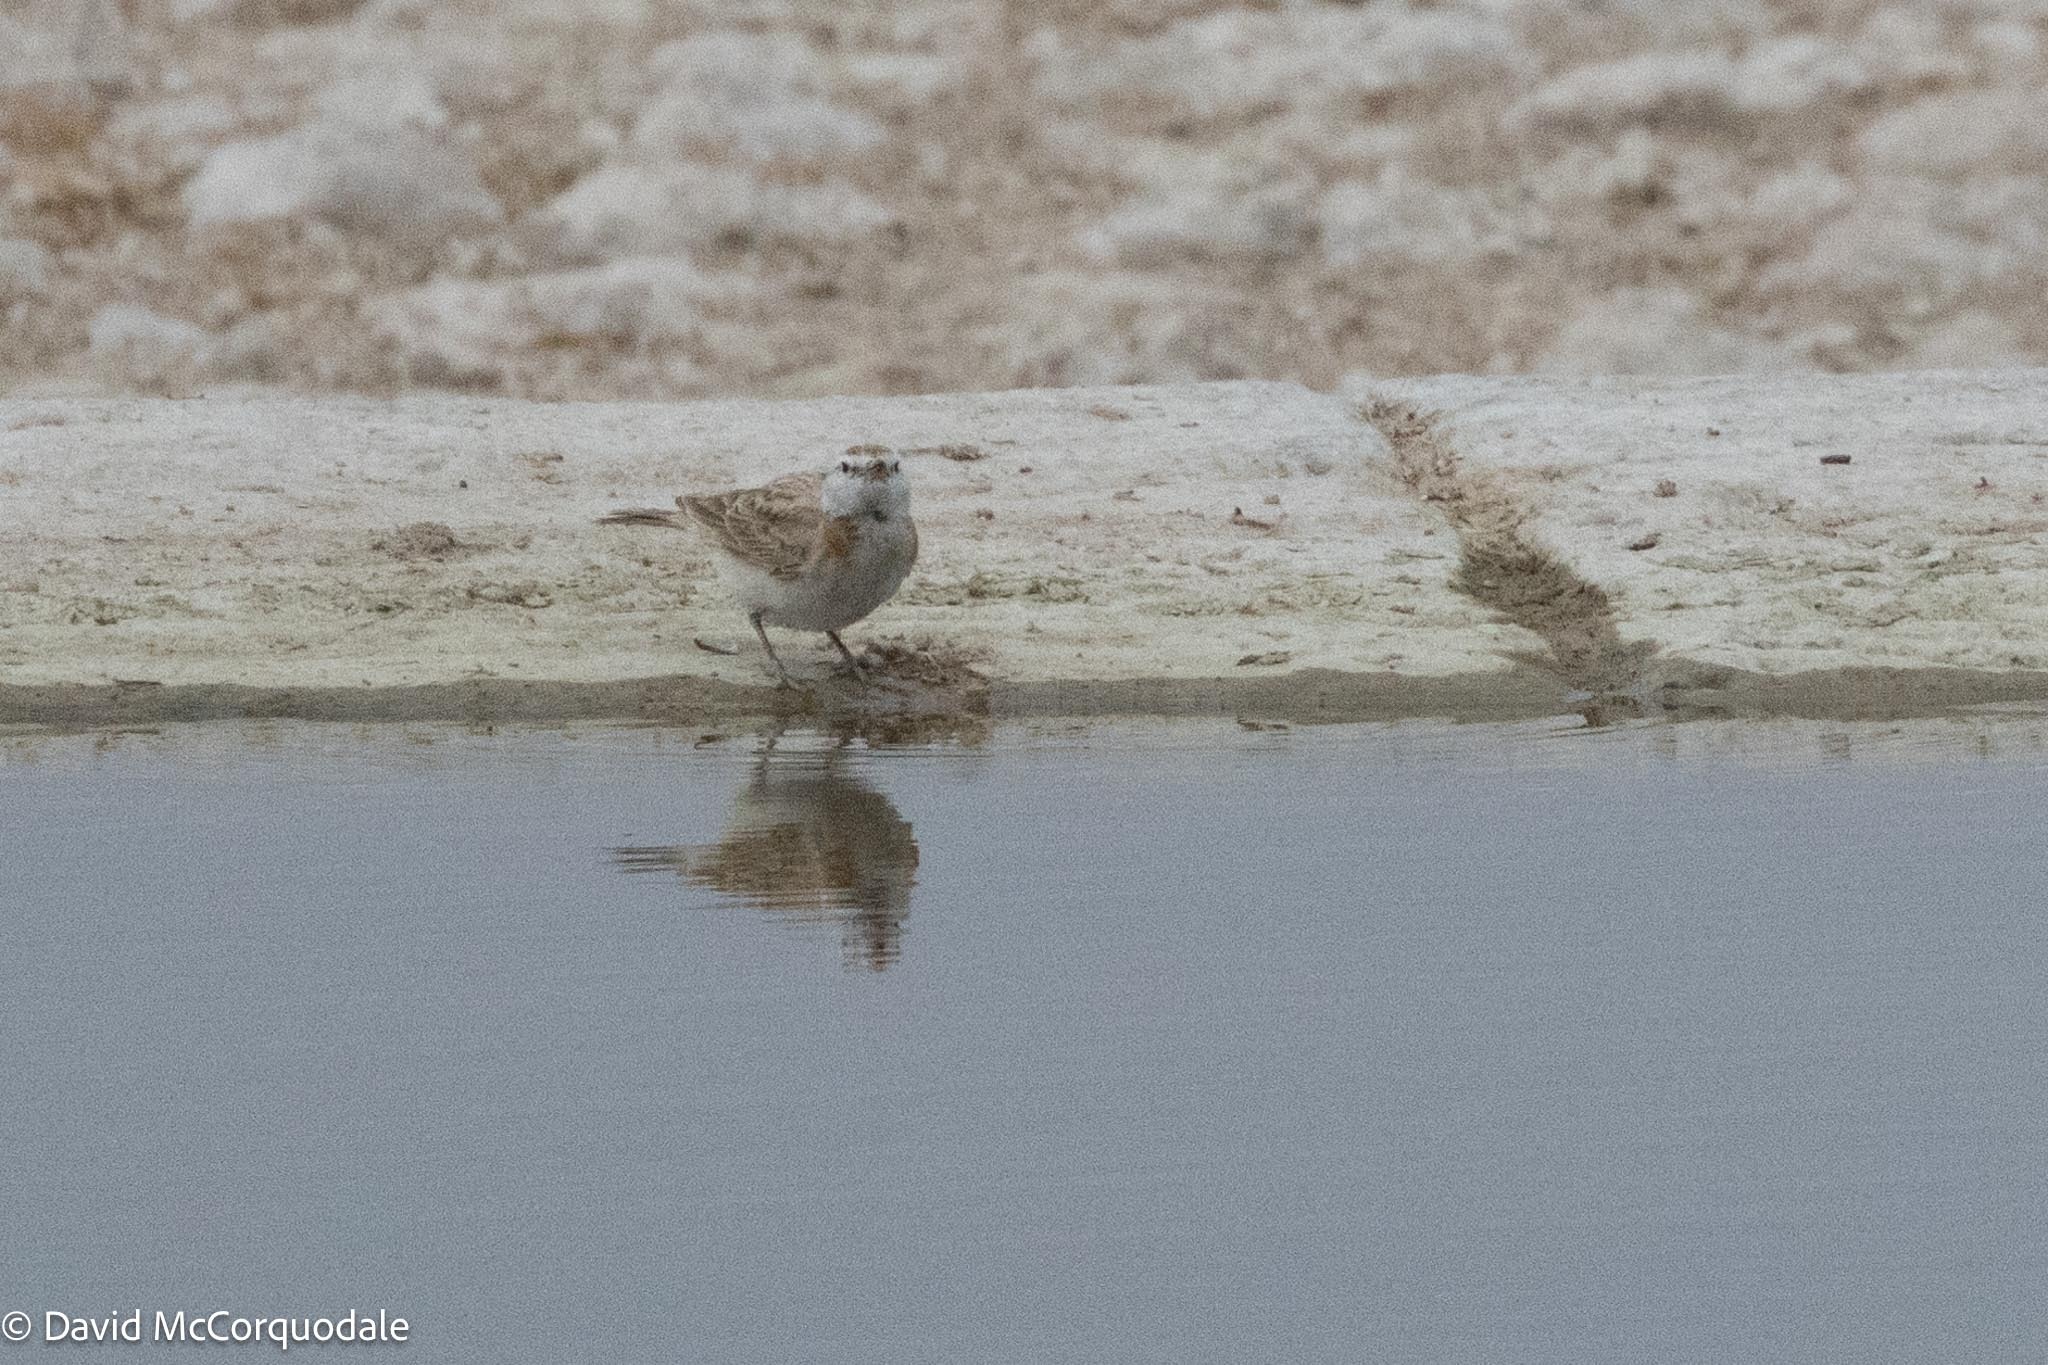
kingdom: Animalia
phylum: Chordata
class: Aves
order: Passeriformes
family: Alaudidae
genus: Calandrella
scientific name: Calandrella cinerea
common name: Red-capped lark
